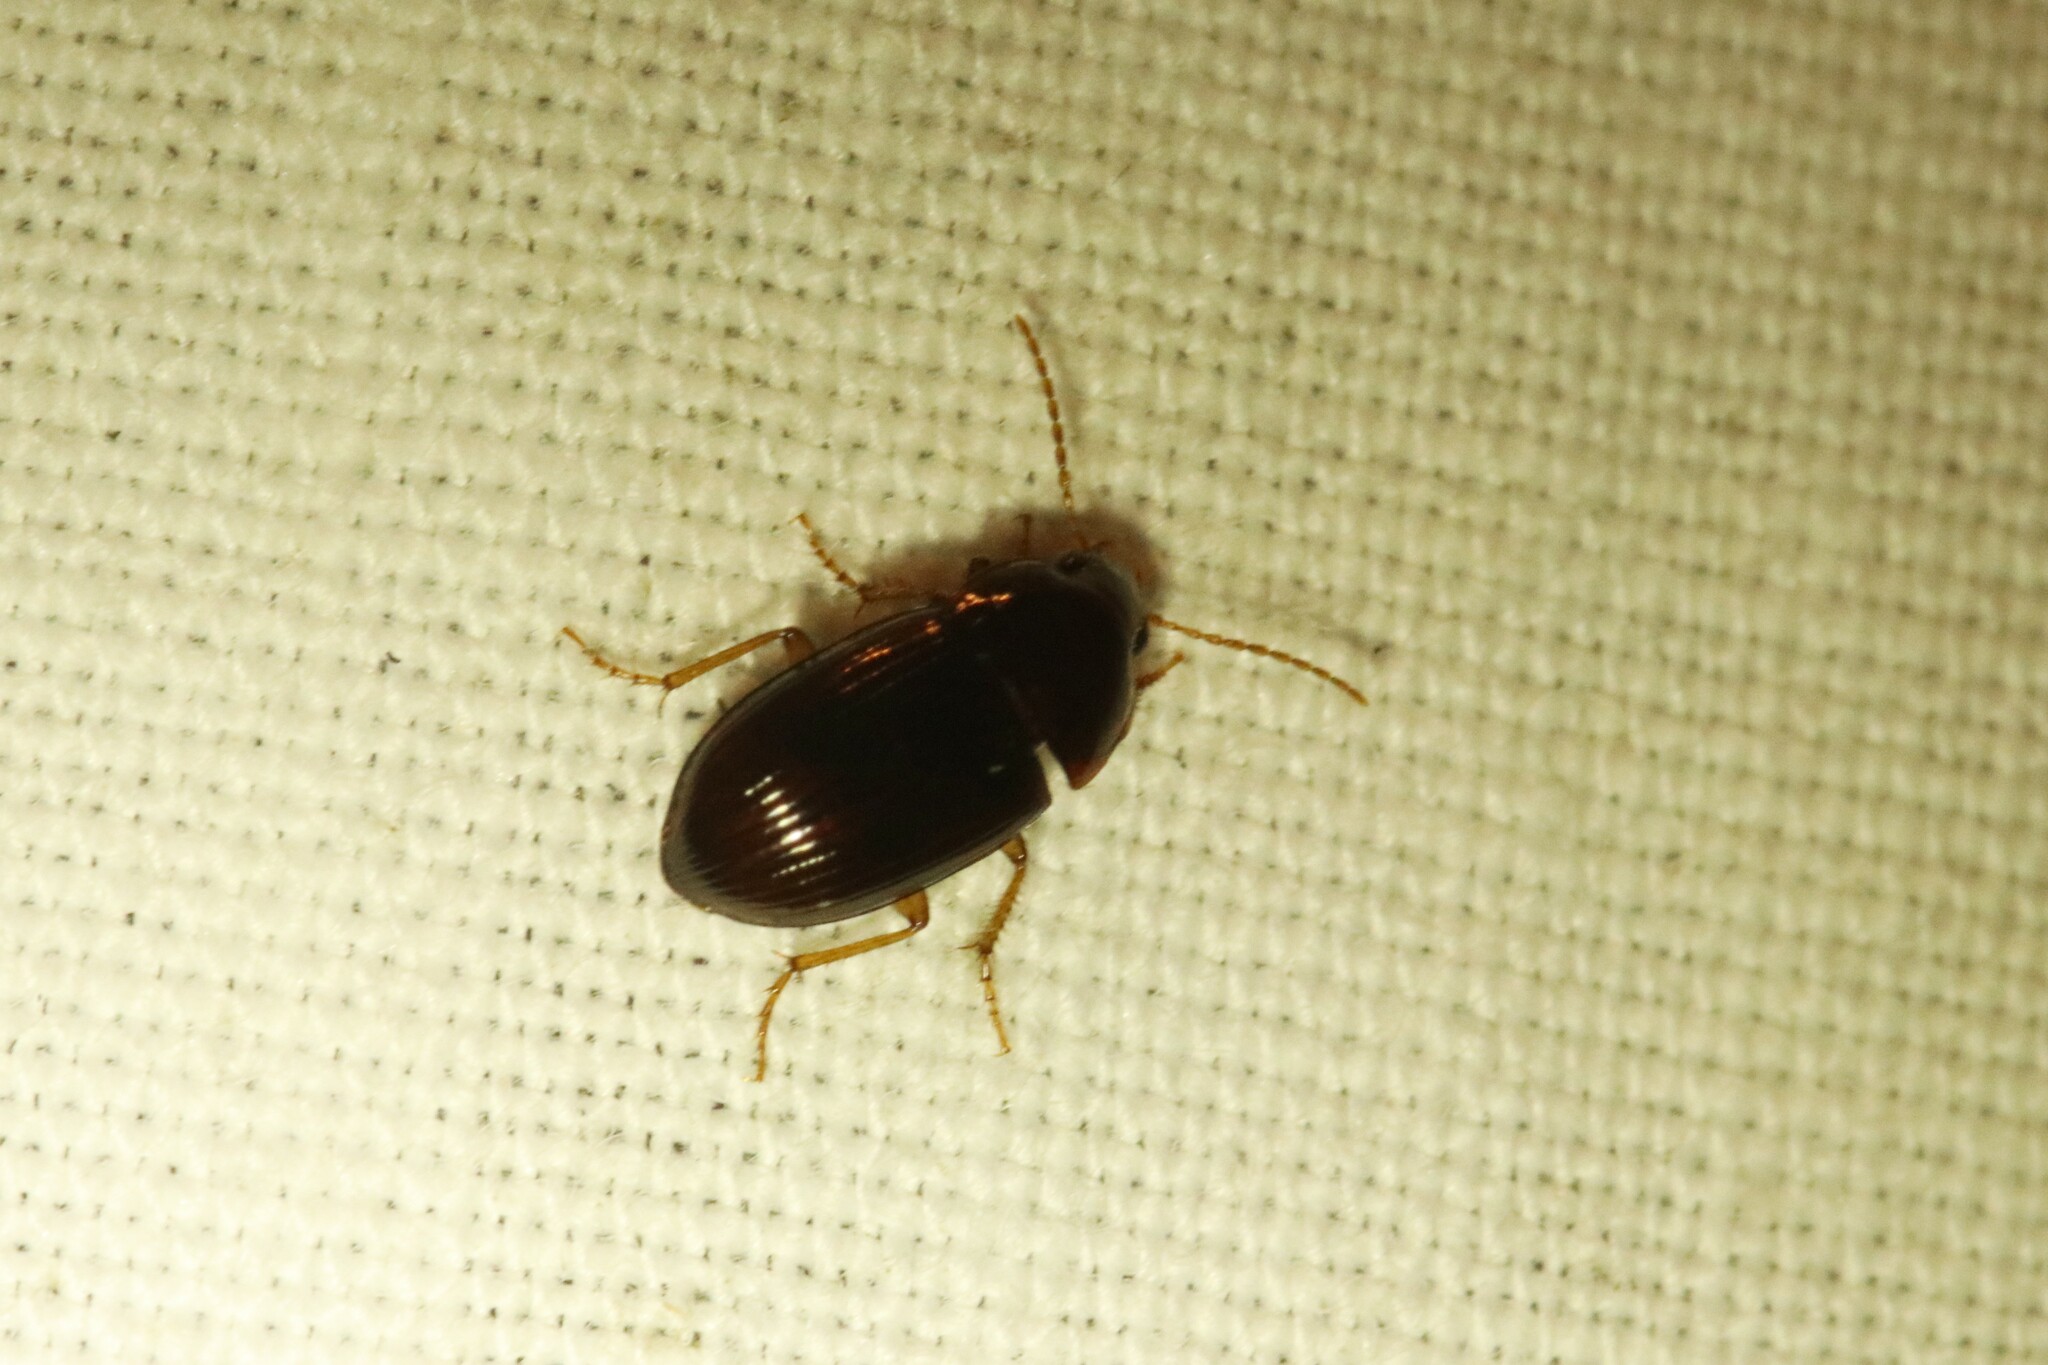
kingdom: Animalia
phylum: Arthropoda
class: Insecta
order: Coleoptera
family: Carabidae
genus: Amara
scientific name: Amara rubrica
